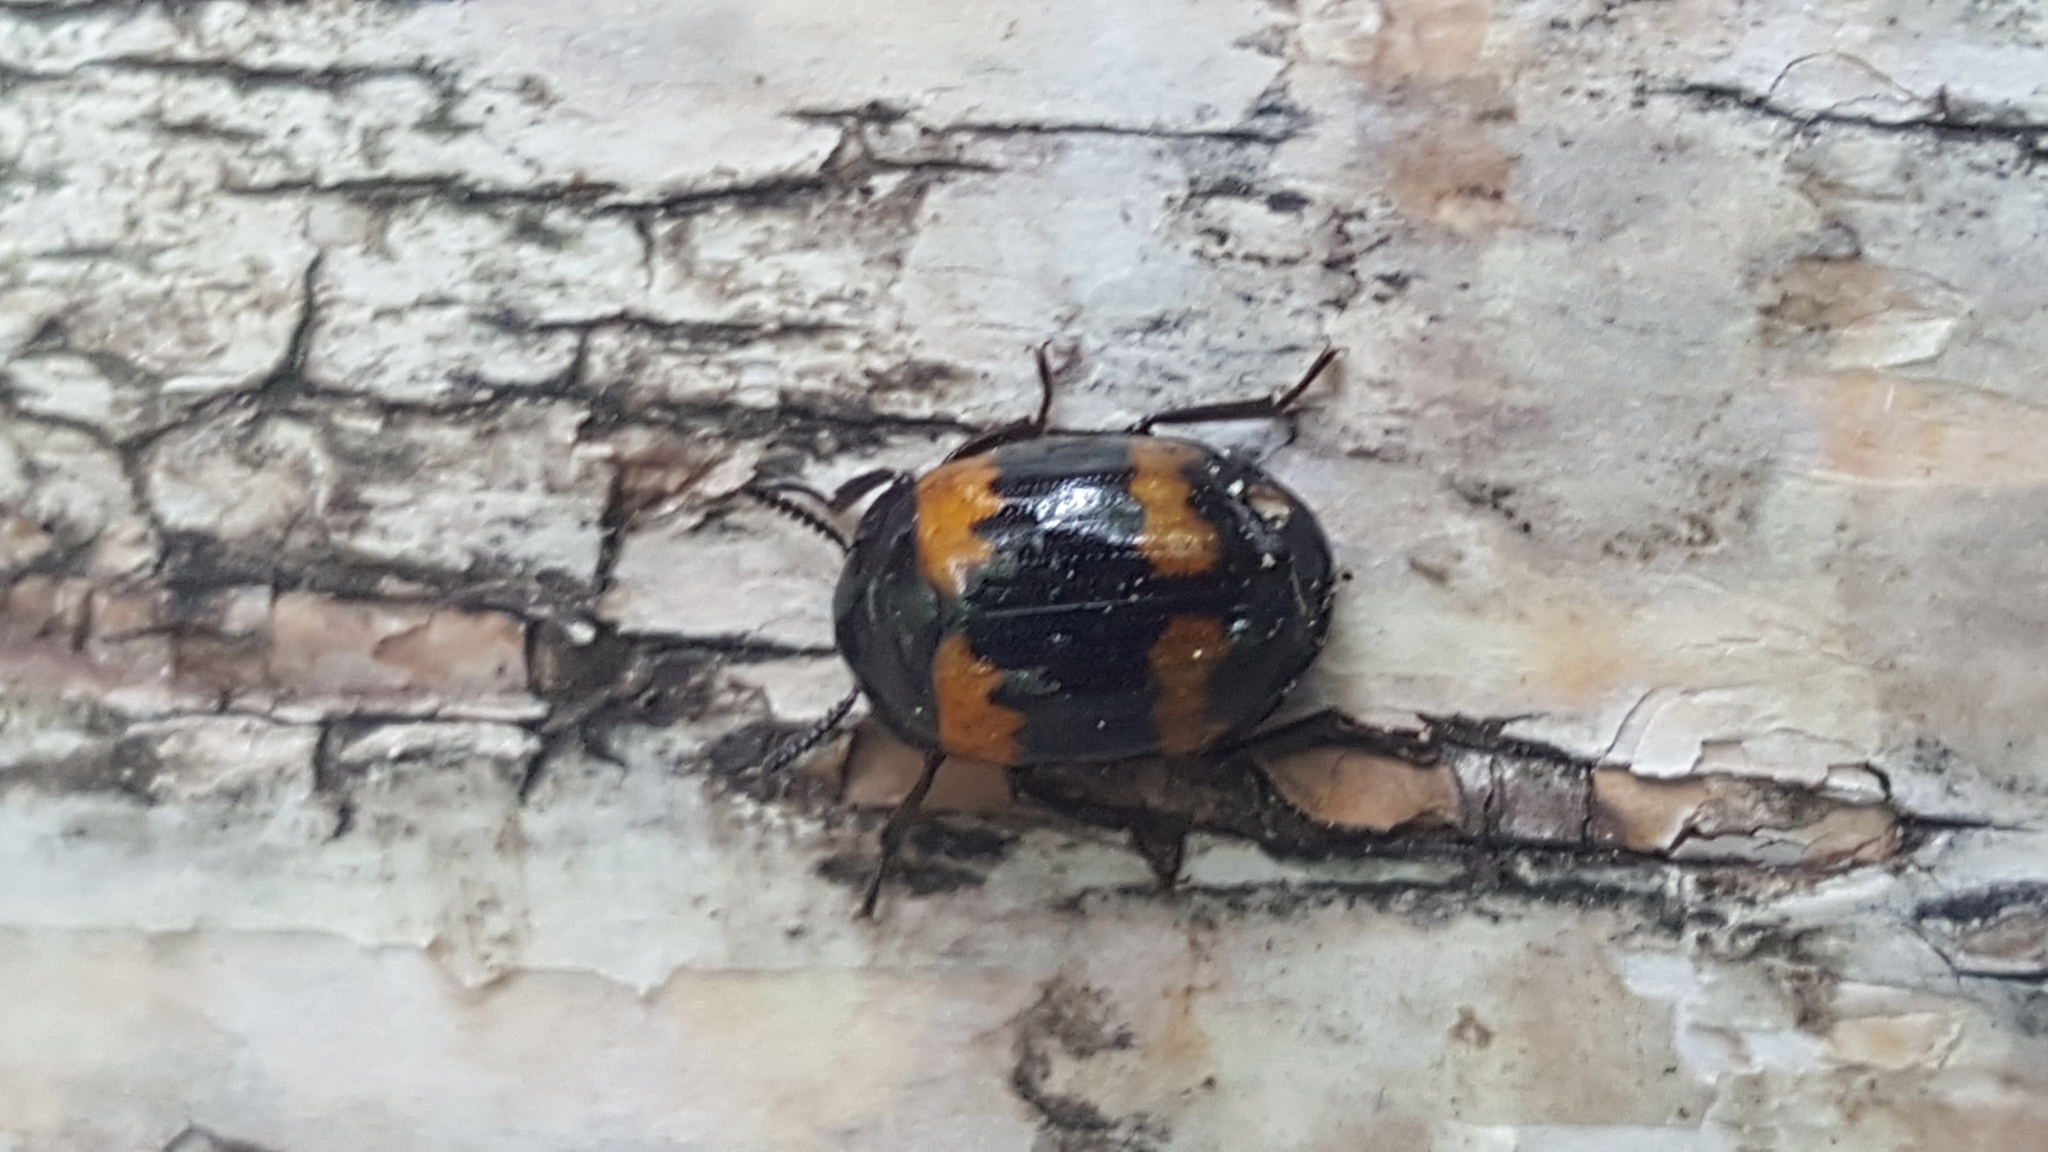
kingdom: Animalia
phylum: Arthropoda
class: Insecta
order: Coleoptera
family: Tenebrionidae
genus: Diaperis
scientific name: Diaperis boleti
